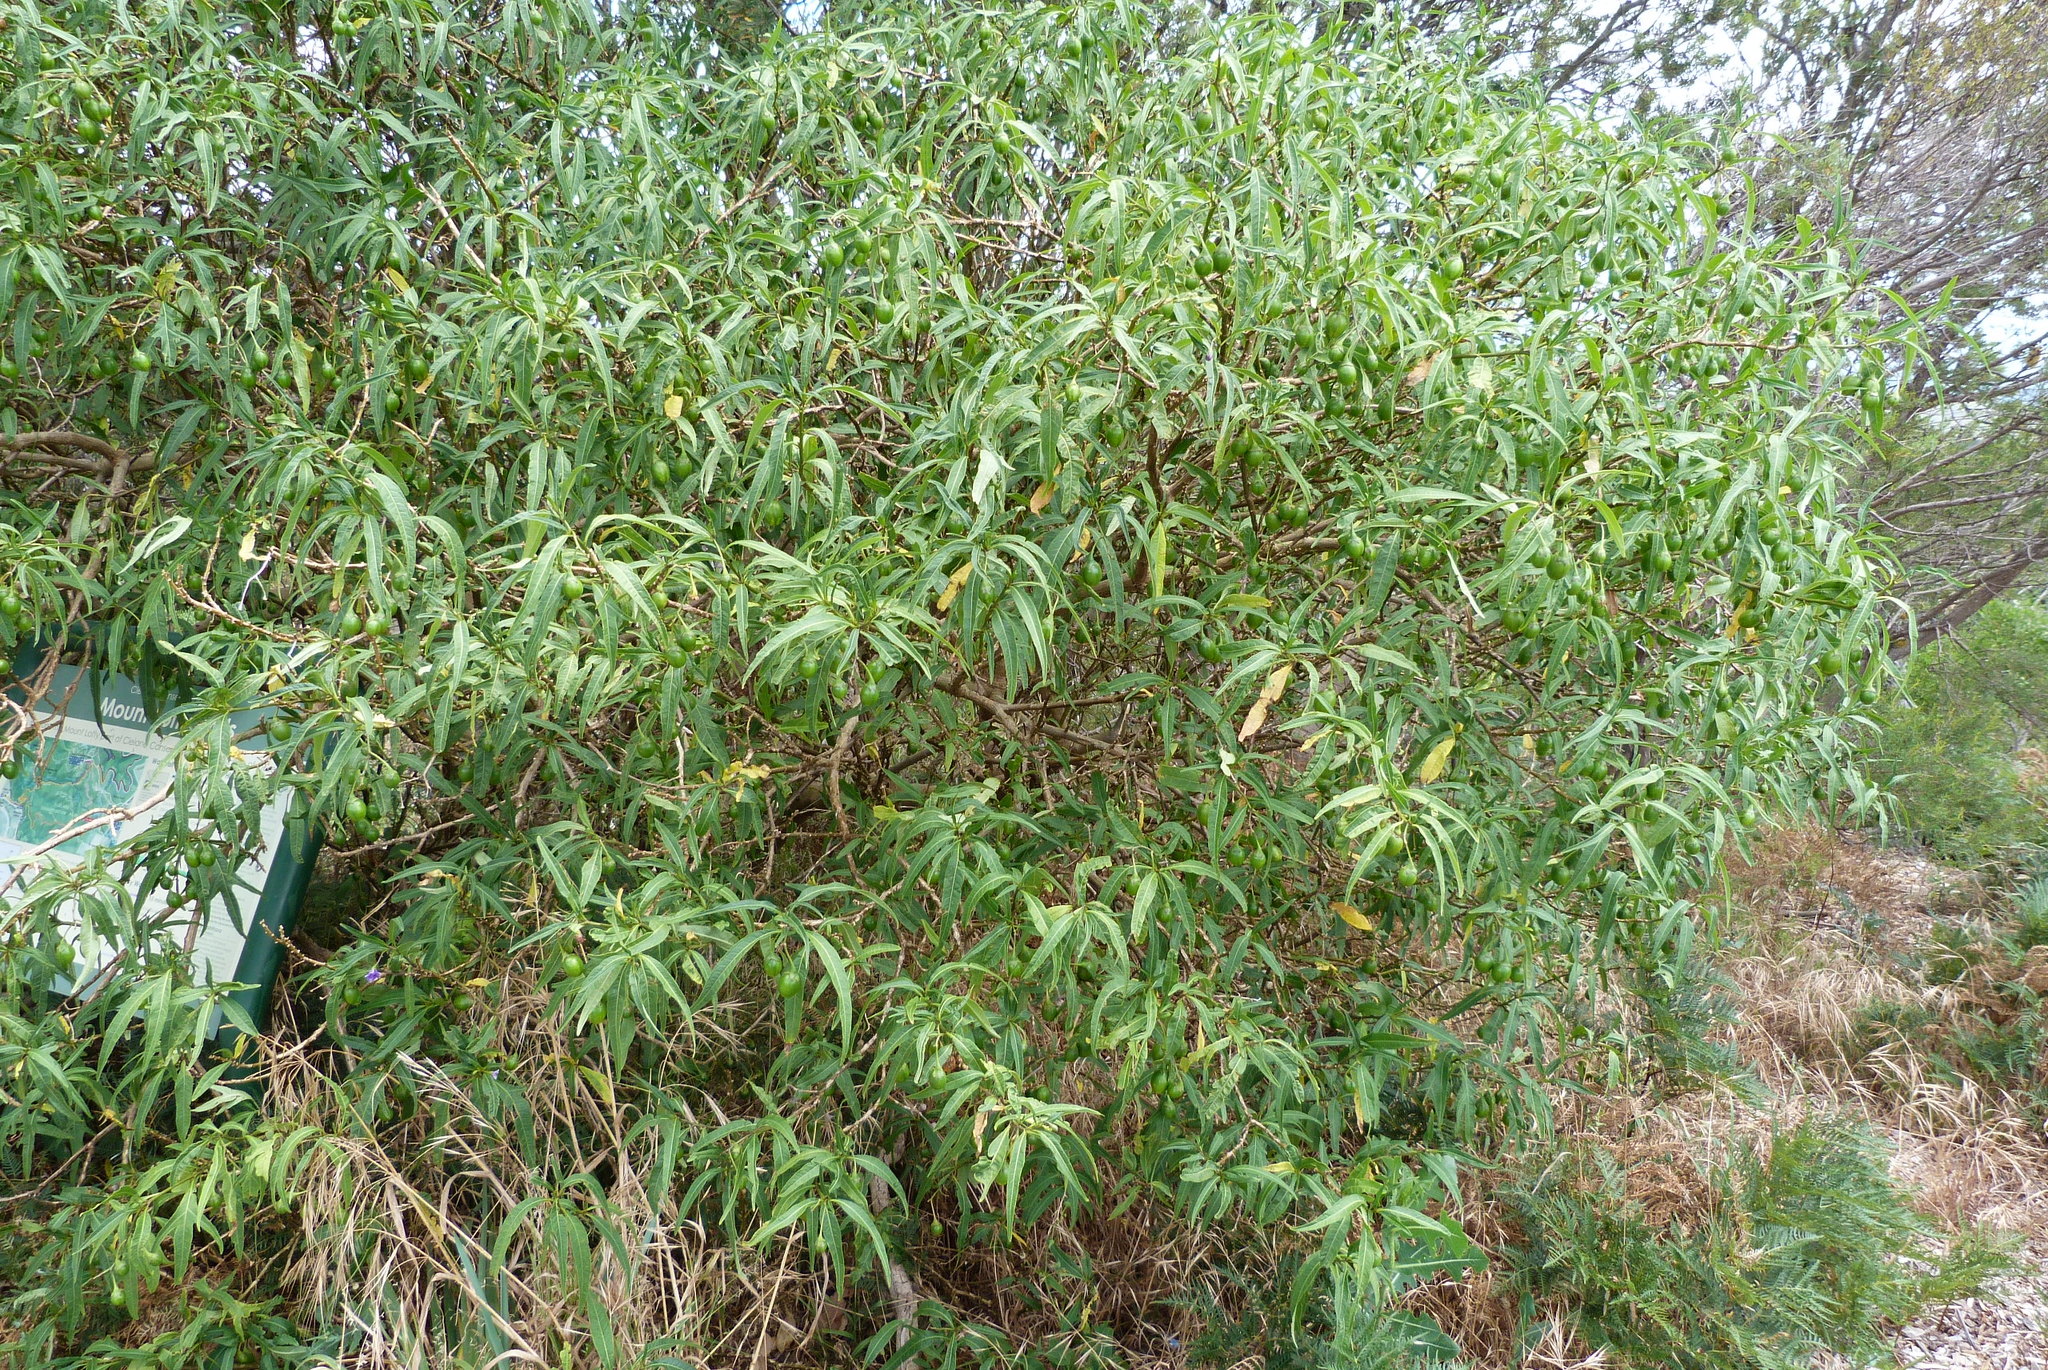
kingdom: Plantae
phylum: Tracheophyta
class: Magnoliopsida
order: Solanales
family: Solanaceae
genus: Solanum
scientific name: Solanum laciniatum
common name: Kangaroo-apple
